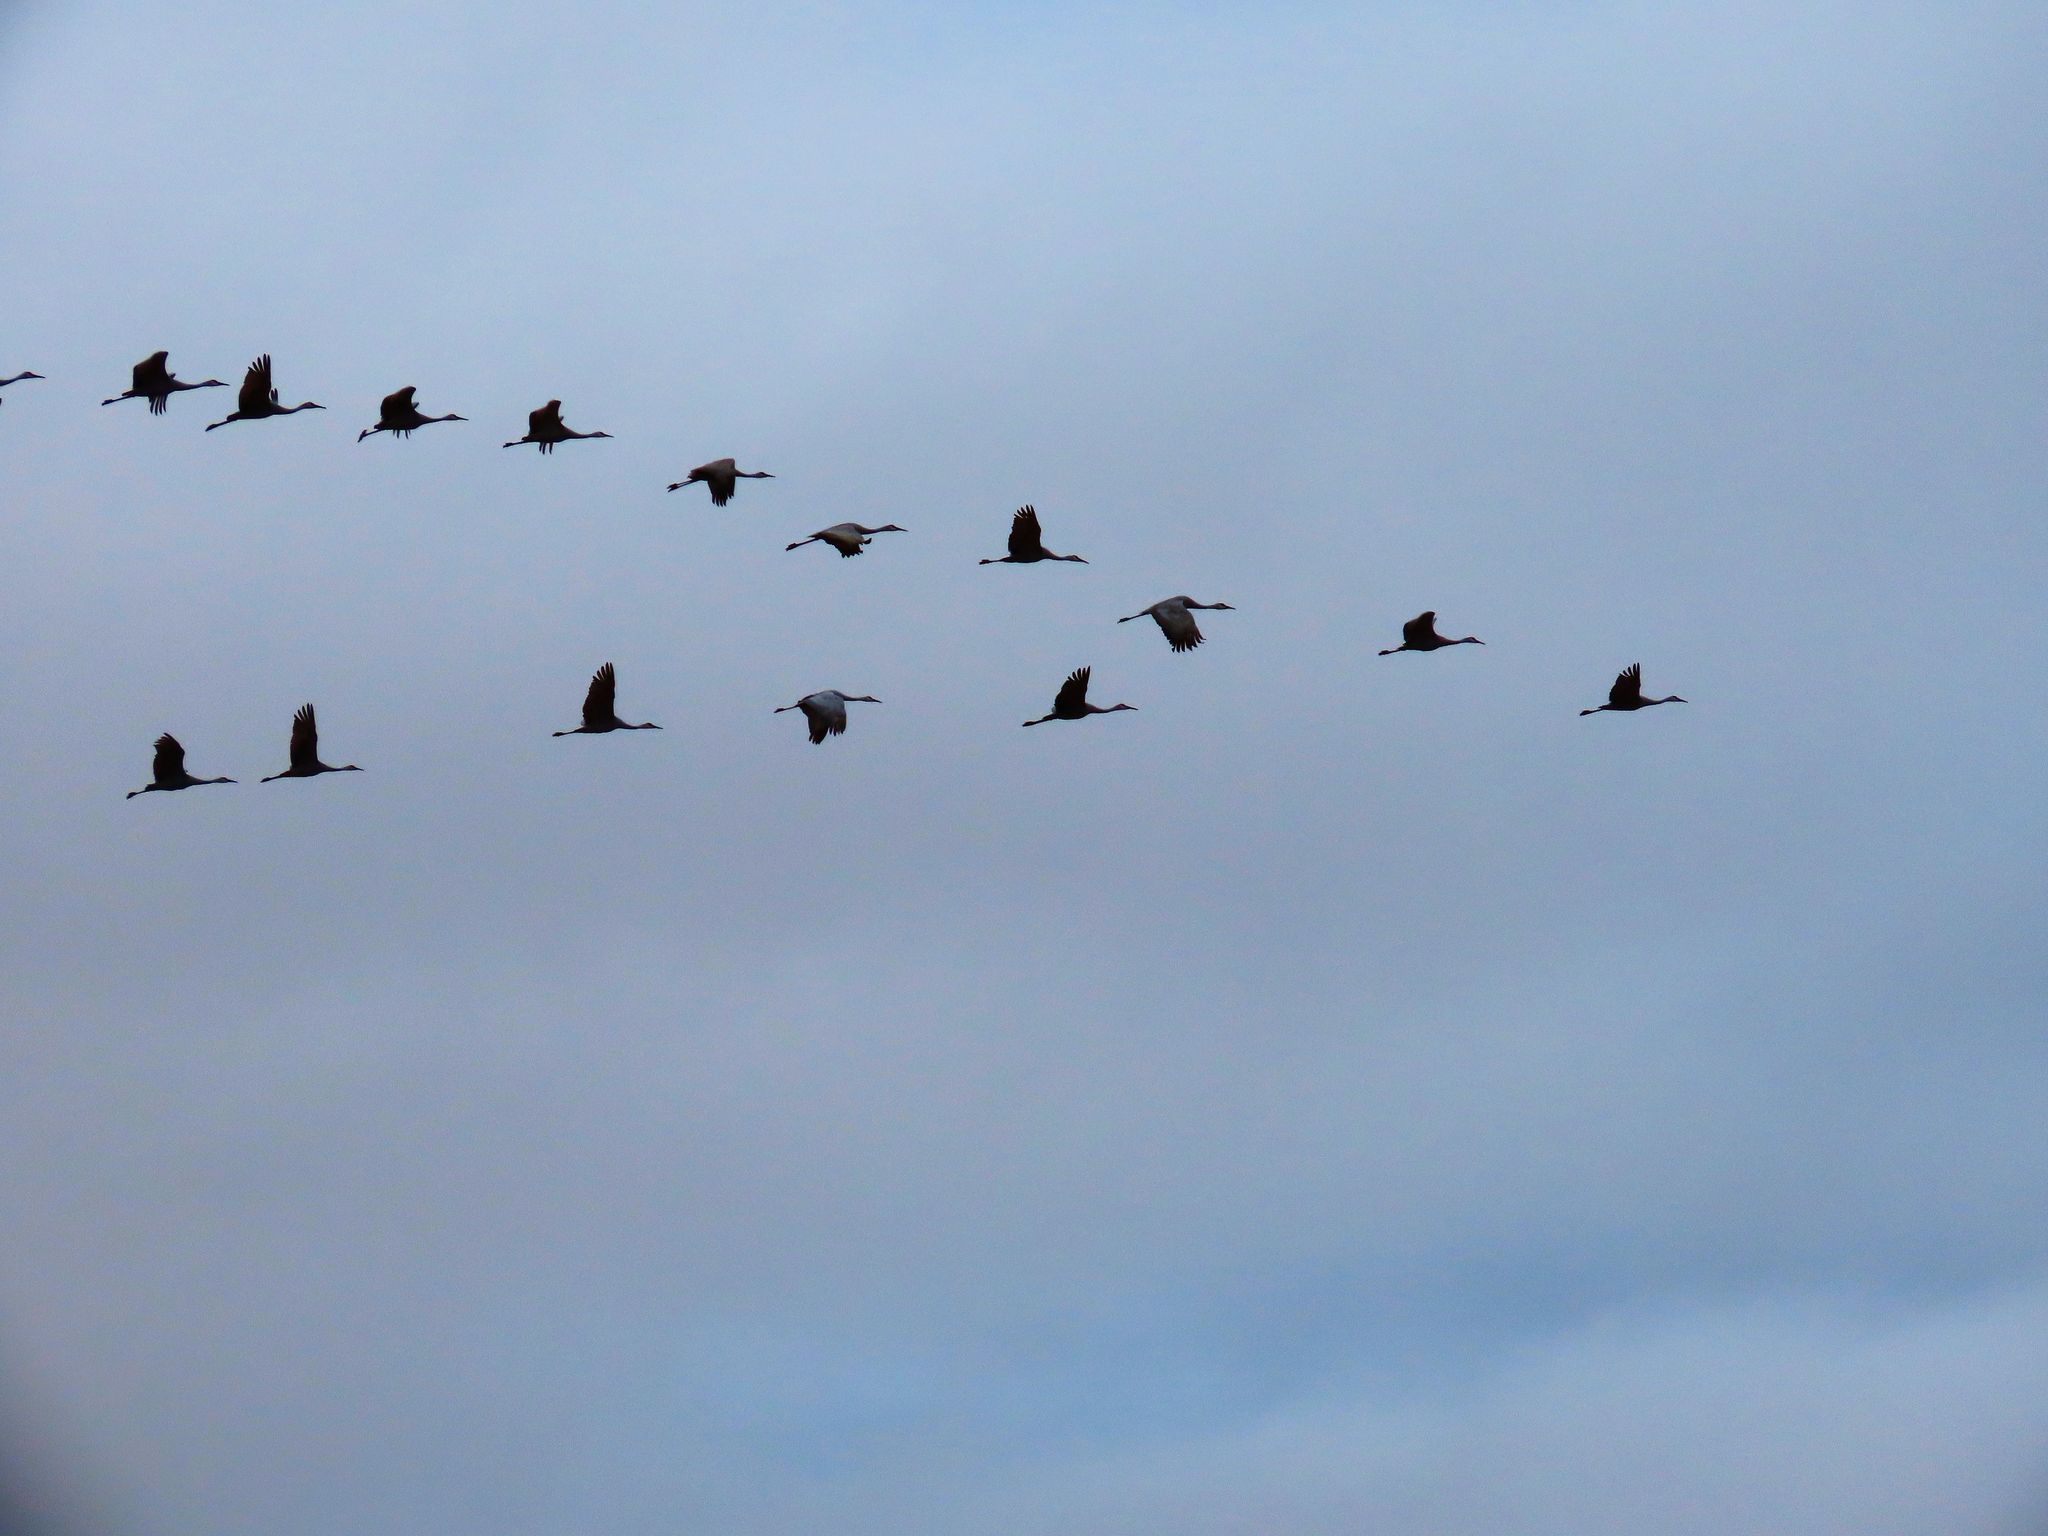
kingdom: Animalia
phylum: Chordata
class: Aves
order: Gruiformes
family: Gruidae
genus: Grus
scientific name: Grus canadensis
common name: Sandhill crane
